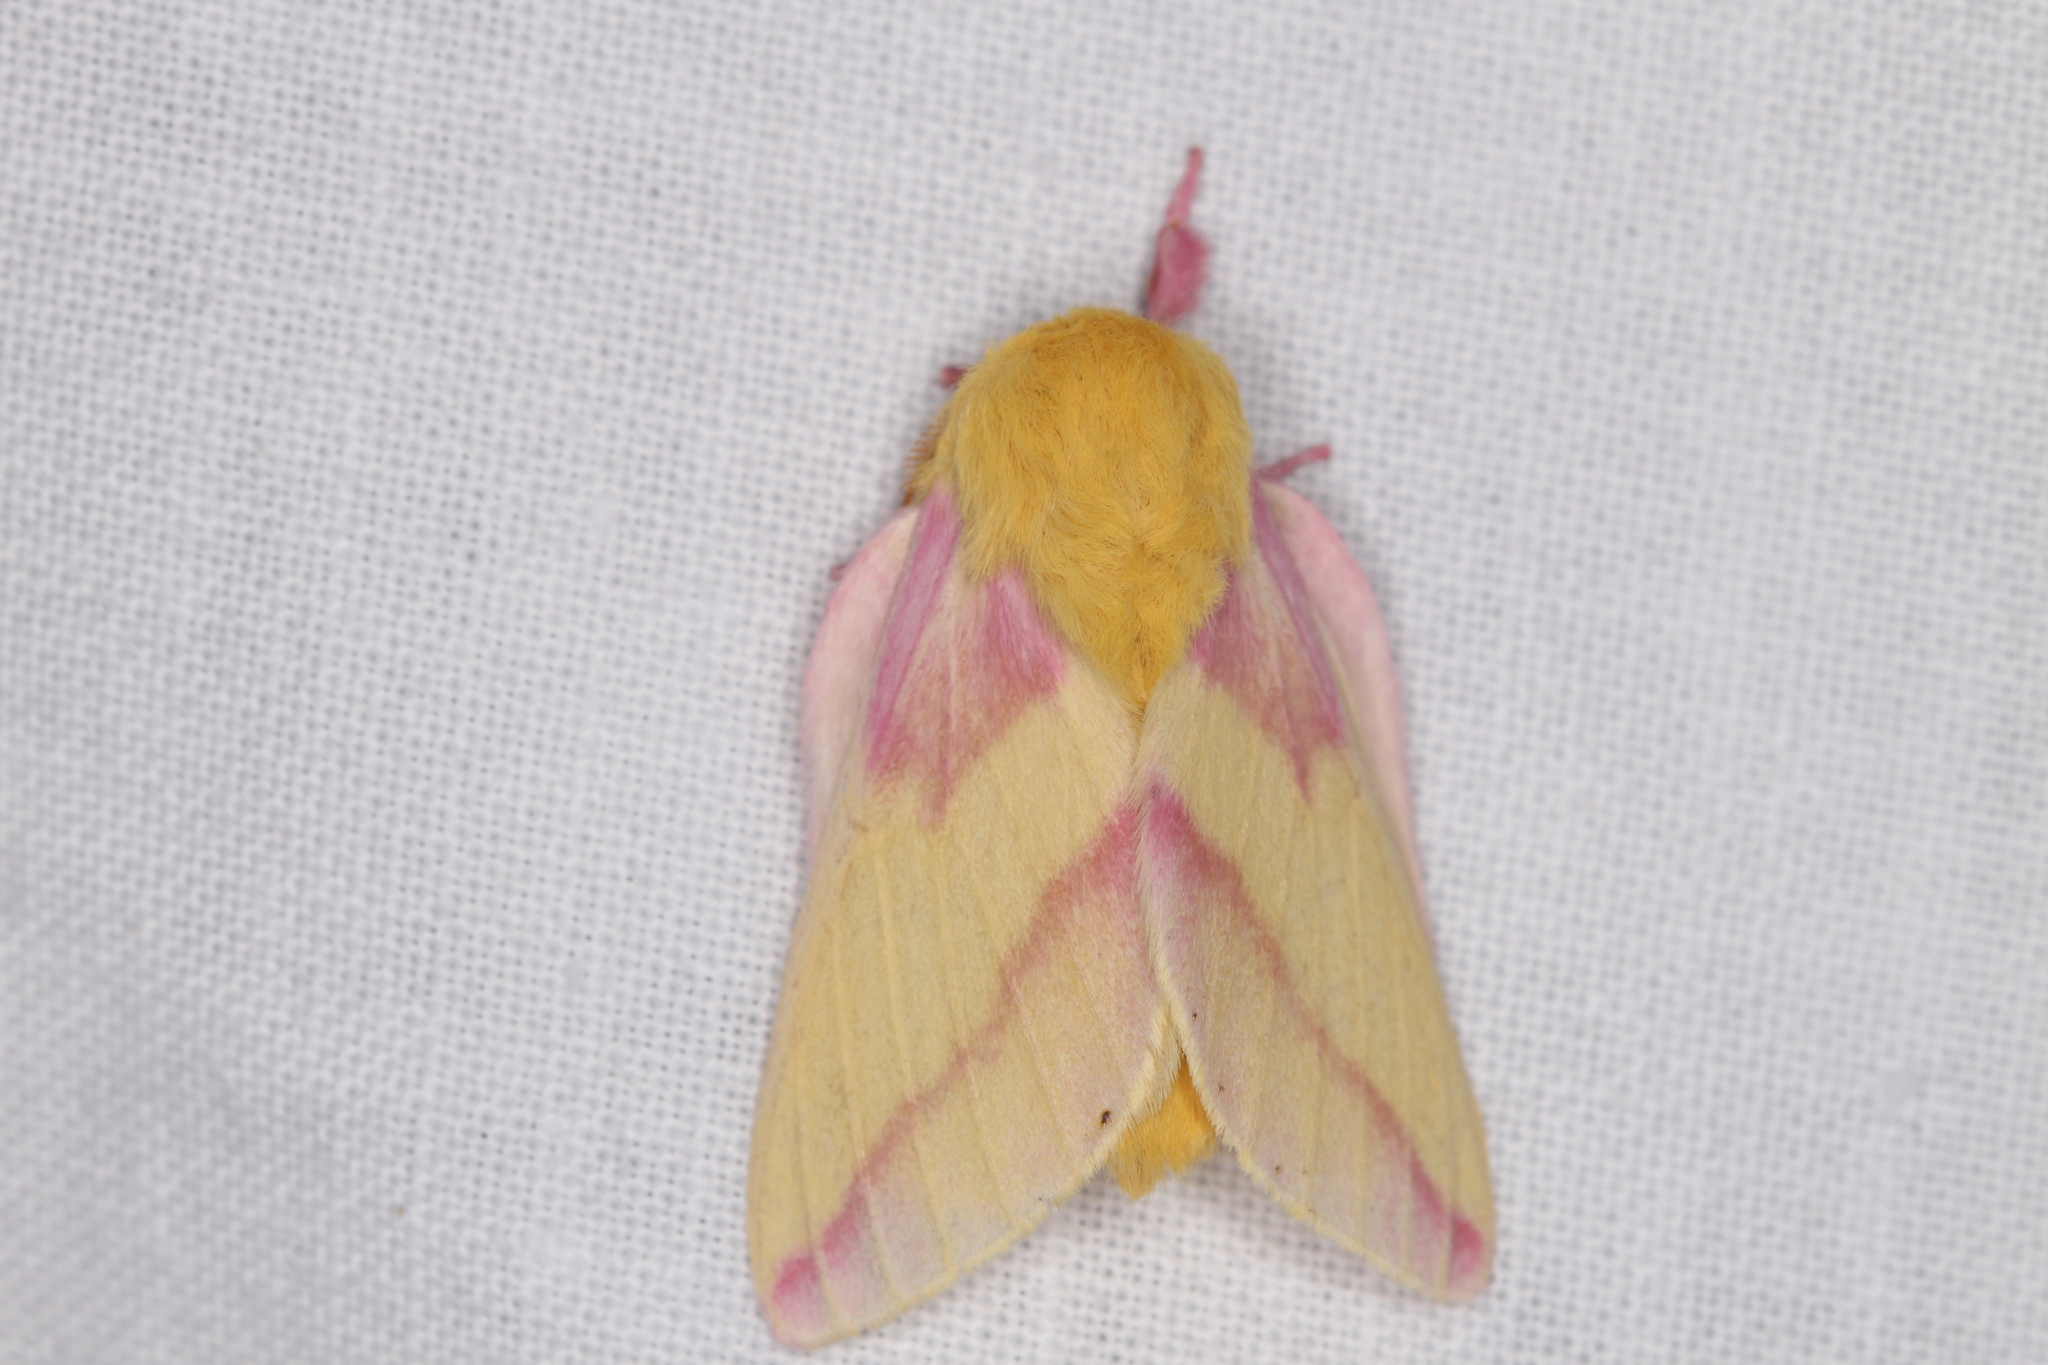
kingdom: Animalia
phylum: Arthropoda
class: Insecta
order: Lepidoptera
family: Saturniidae
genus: Dryocampa
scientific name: Dryocampa rubicunda
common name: Rosy maple moth
